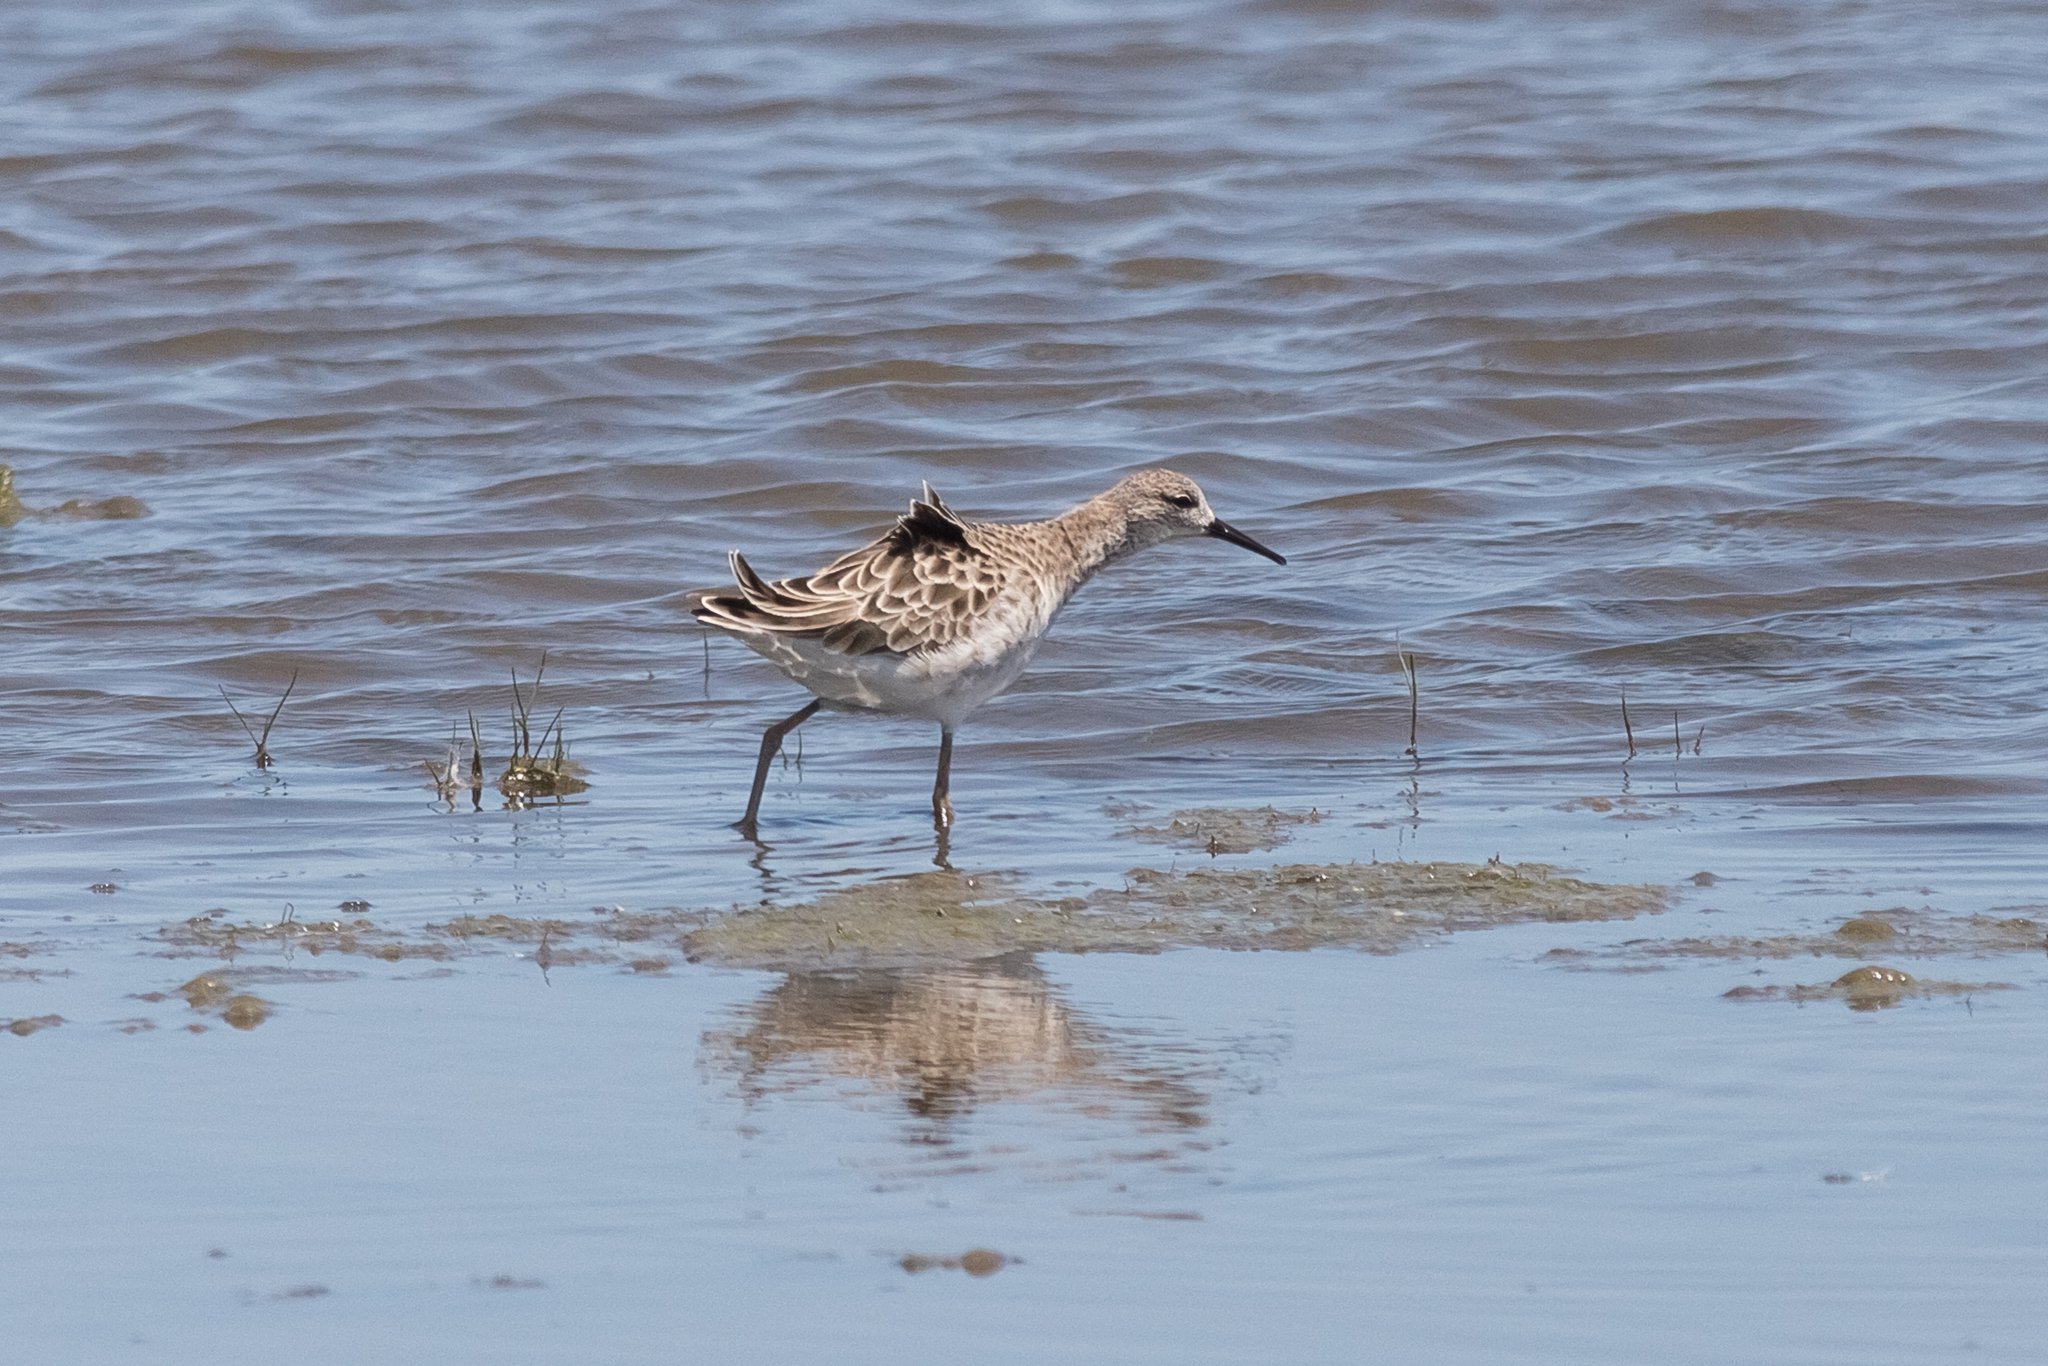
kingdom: Animalia
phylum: Chordata
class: Aves
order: Charadriiformes
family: Scolopacidae
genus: Calidris
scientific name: Calidris pugnax
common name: Ruff
